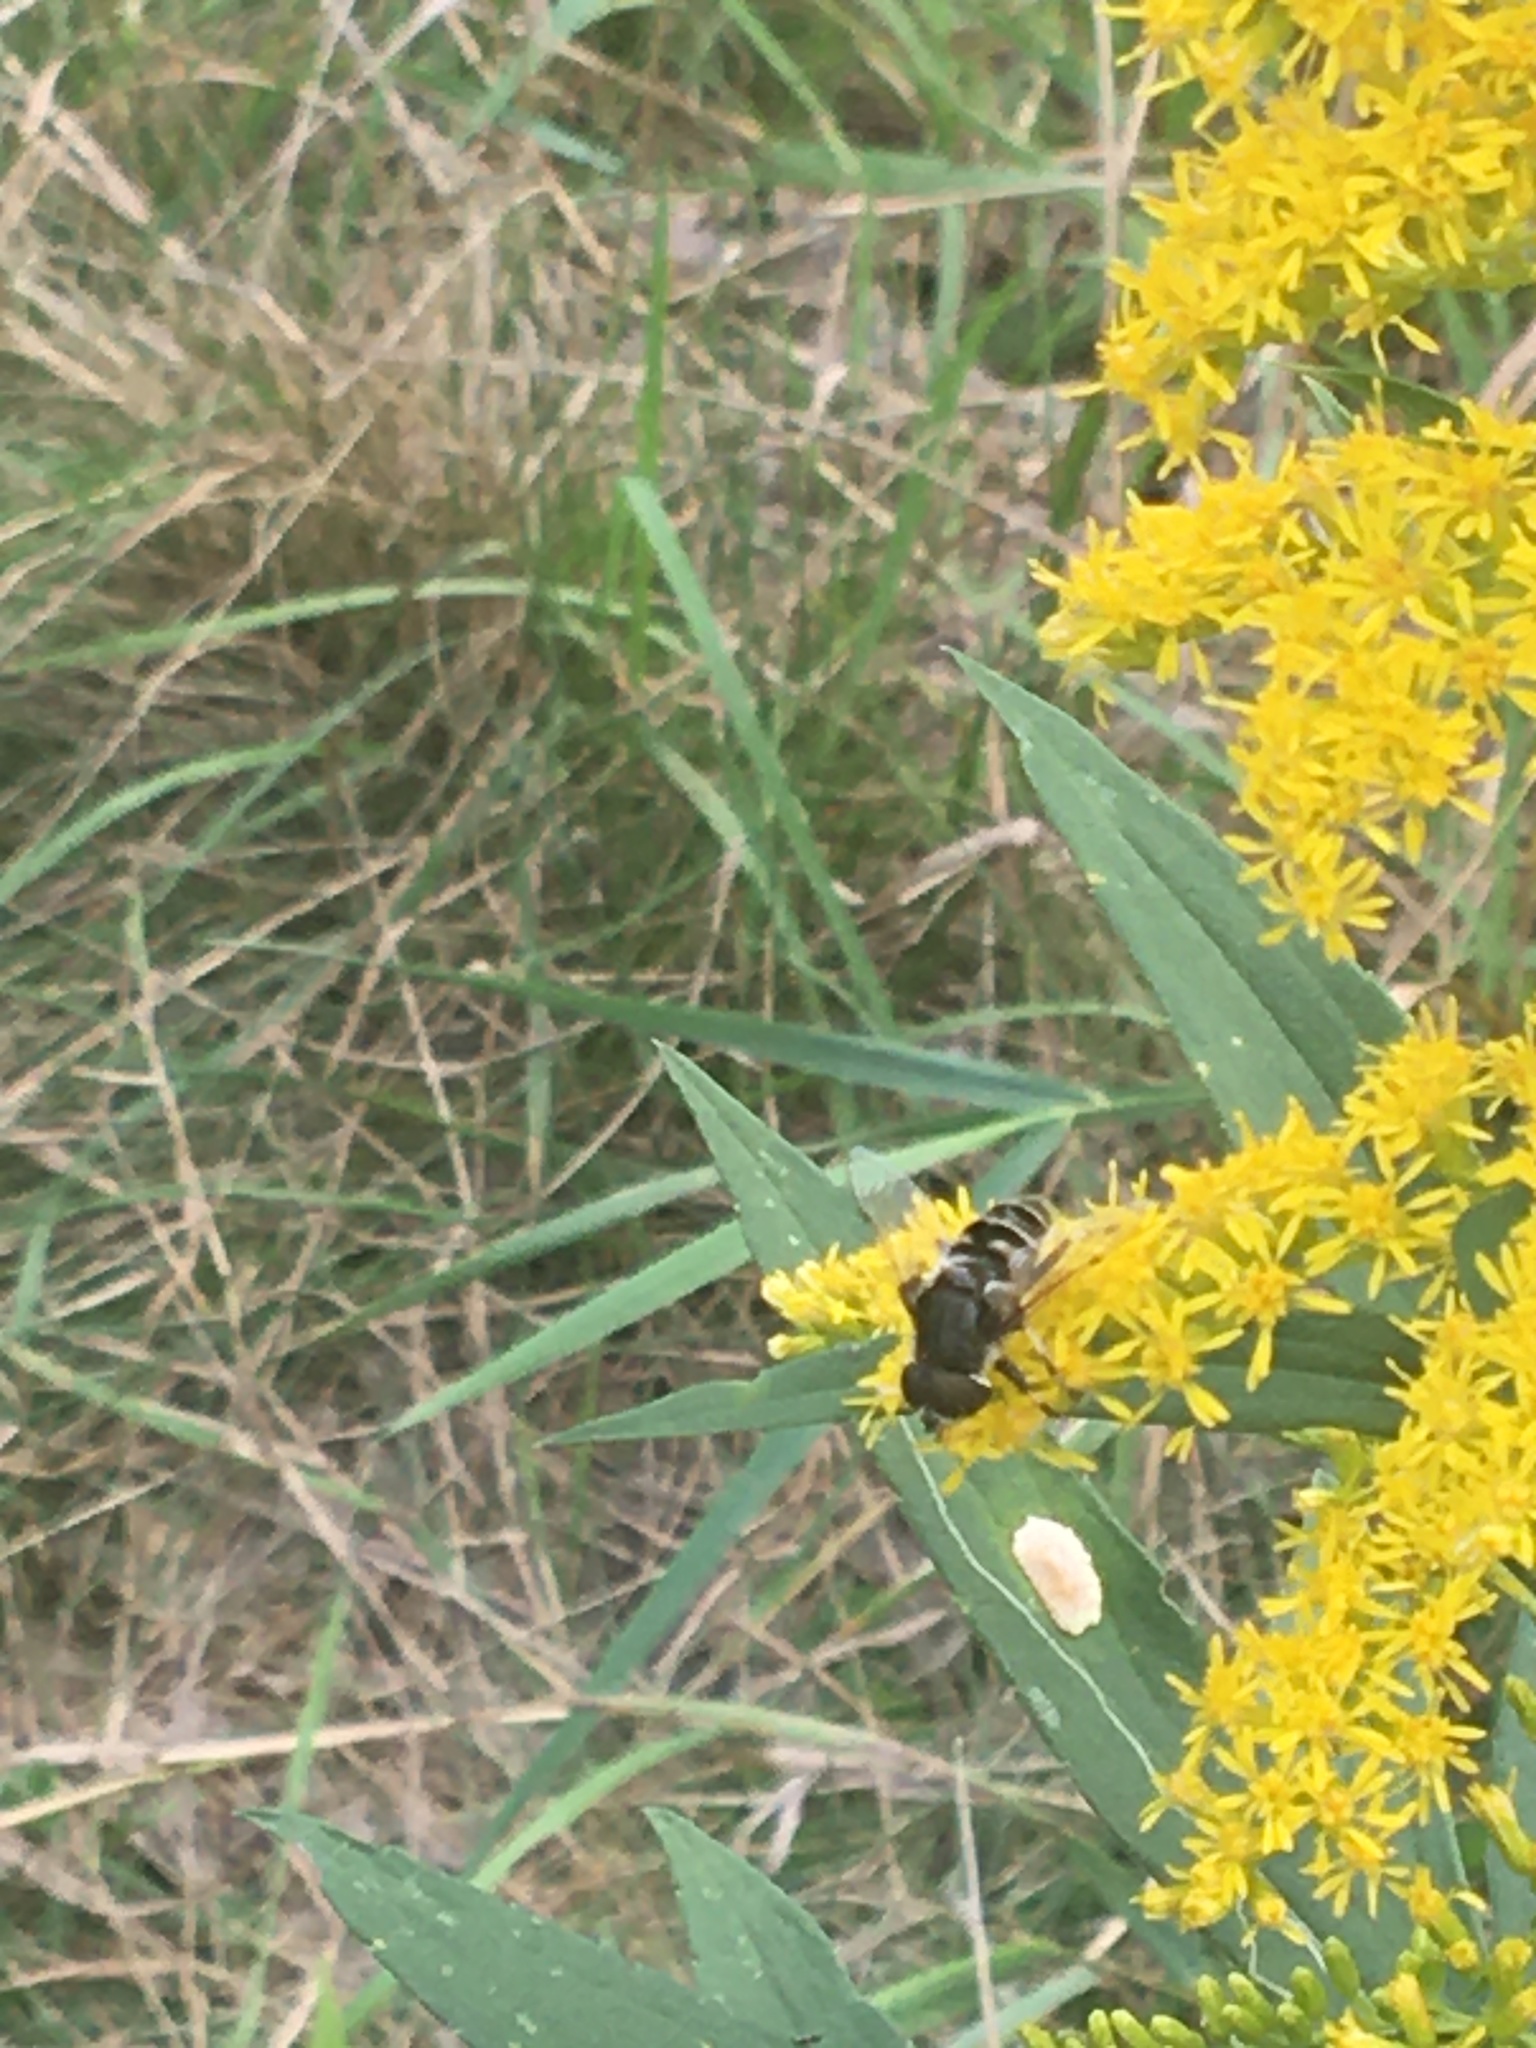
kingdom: Animalia
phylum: Arthropoda
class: Insecta
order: Diptera
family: Syrphidae
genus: Eristalis
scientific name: Eristalis dimidiata
